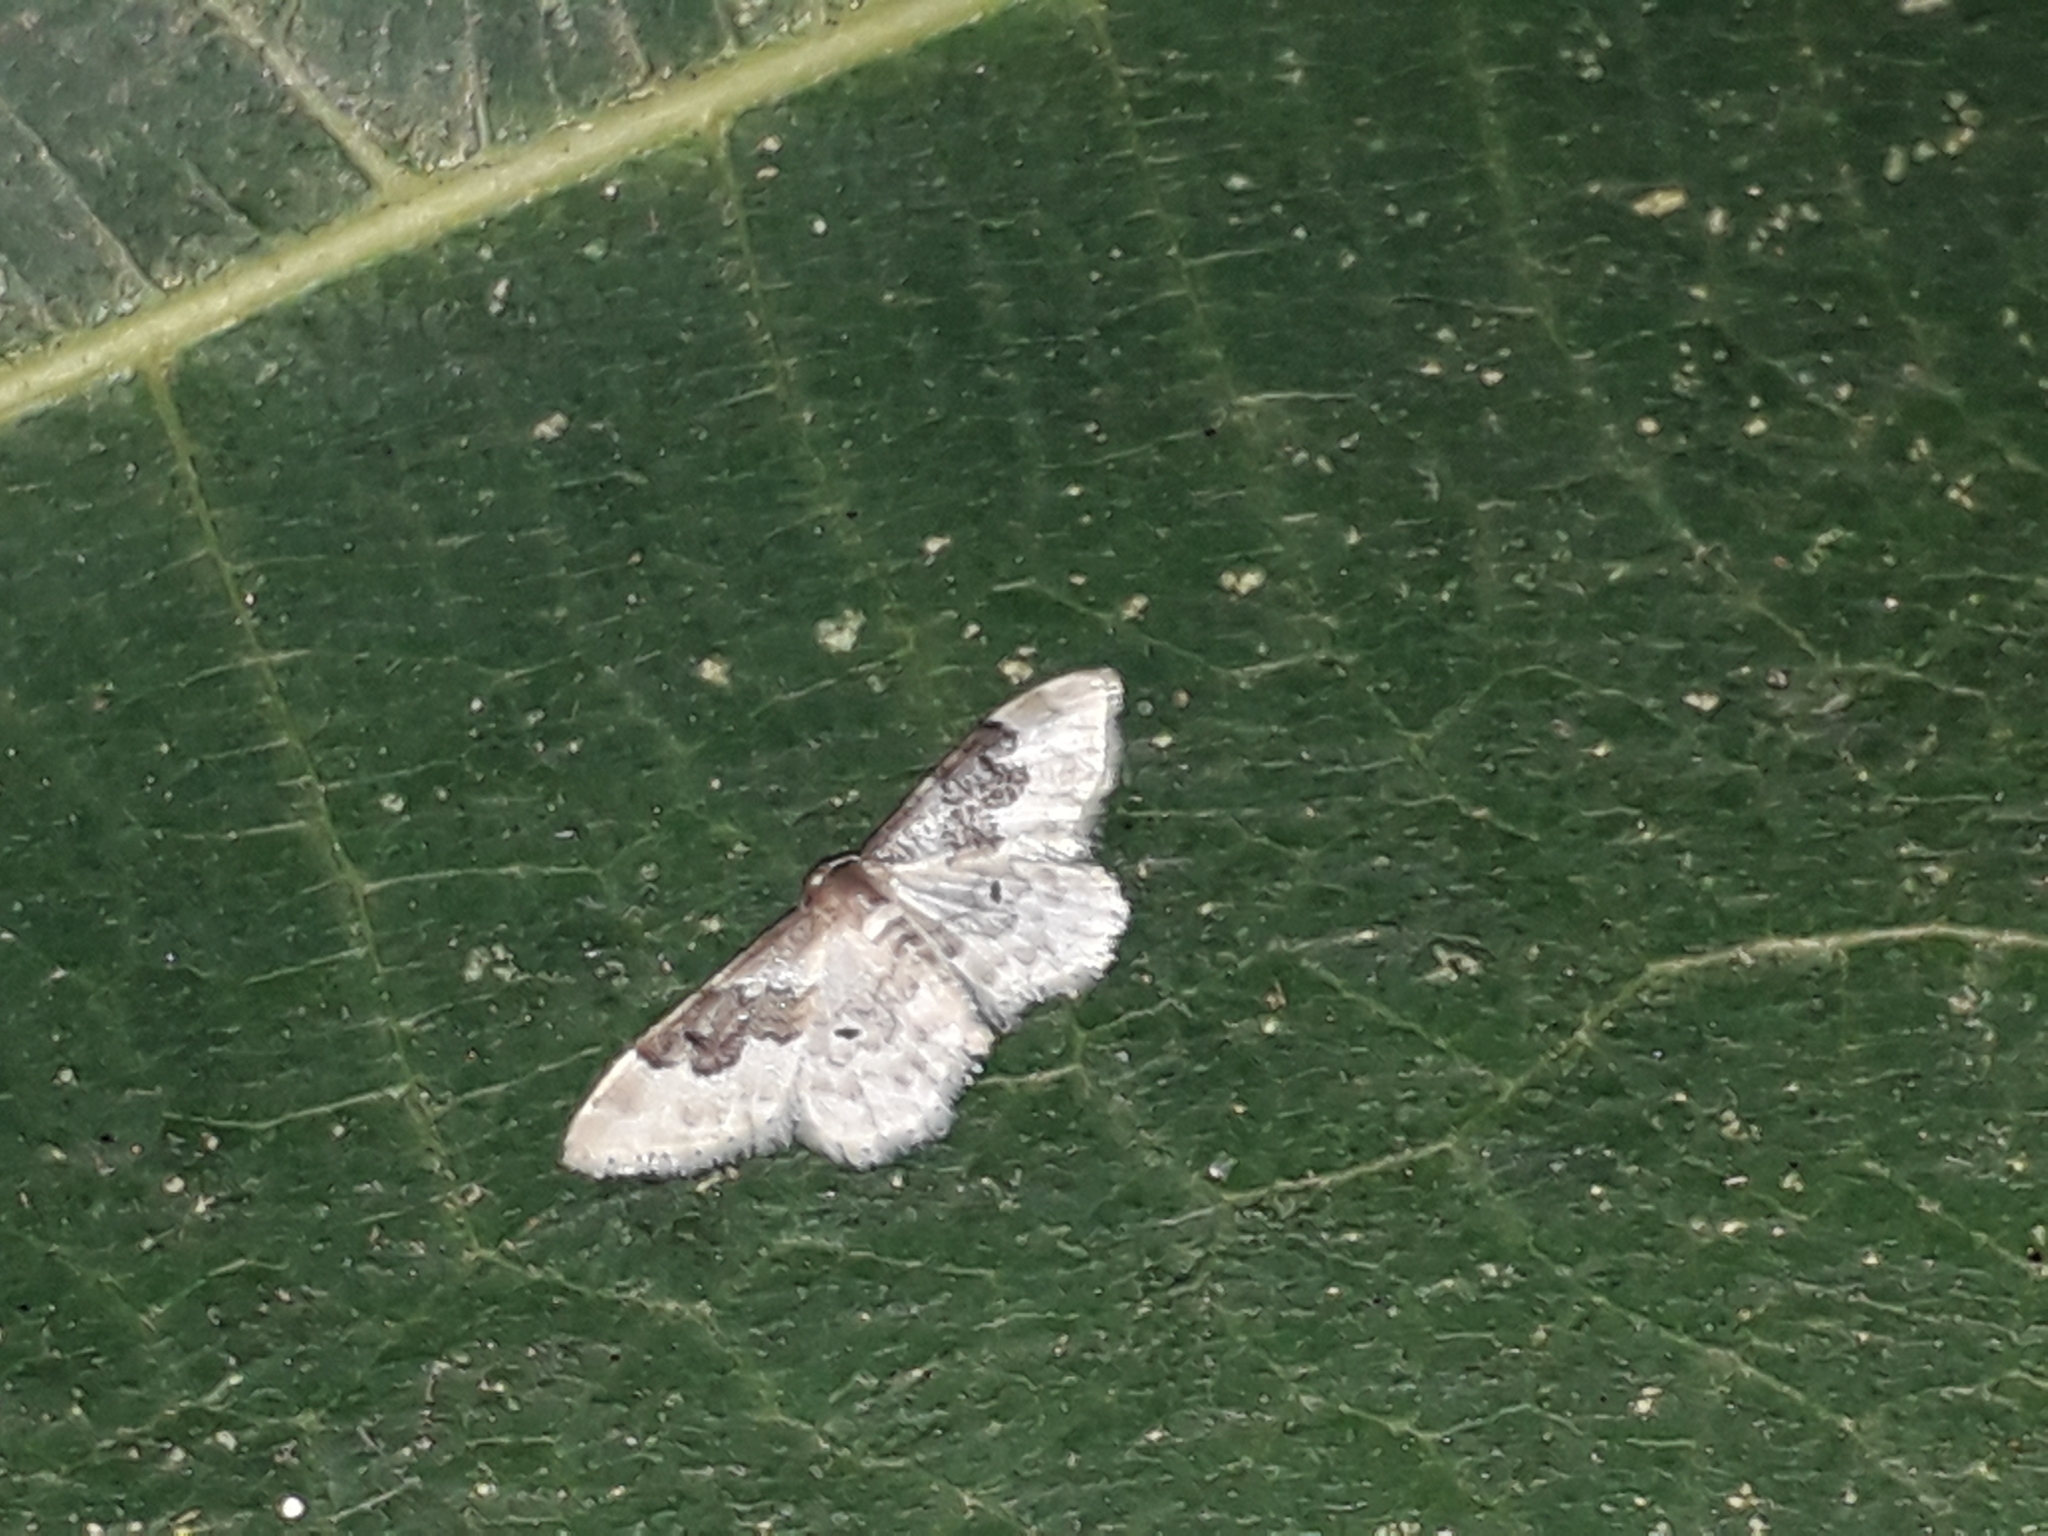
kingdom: Animalia
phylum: Arthropoda
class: Insecta
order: Lepidoptera
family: Geometridae
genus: Idaea
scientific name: Idaea rusticata
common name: Least carpet
